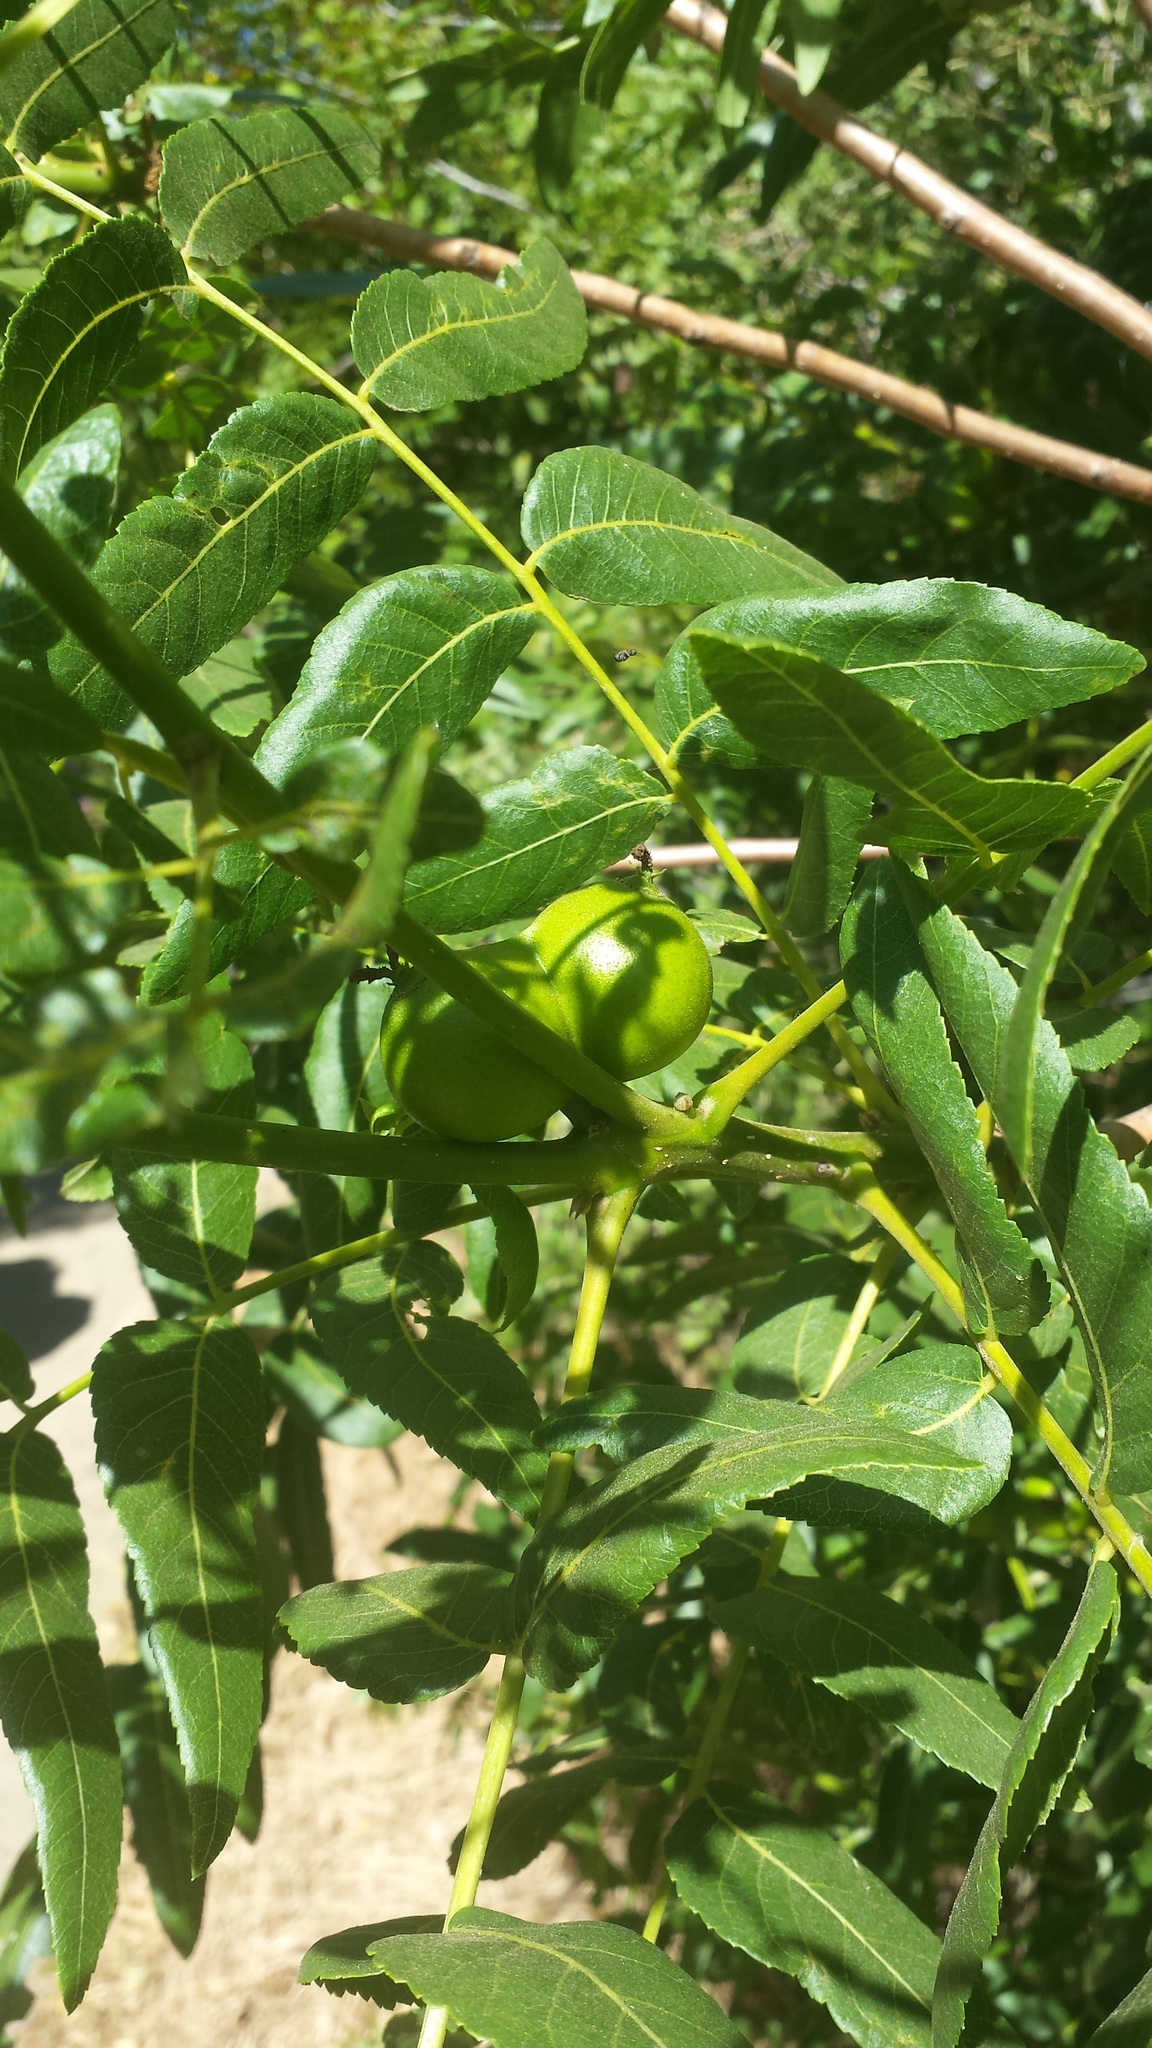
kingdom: Plantae
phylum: Tracheophyta
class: Magnoliopsida
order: Fagales
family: Juglandaceae
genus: Juglans
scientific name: Juglans californica
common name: Southern california black walnut
